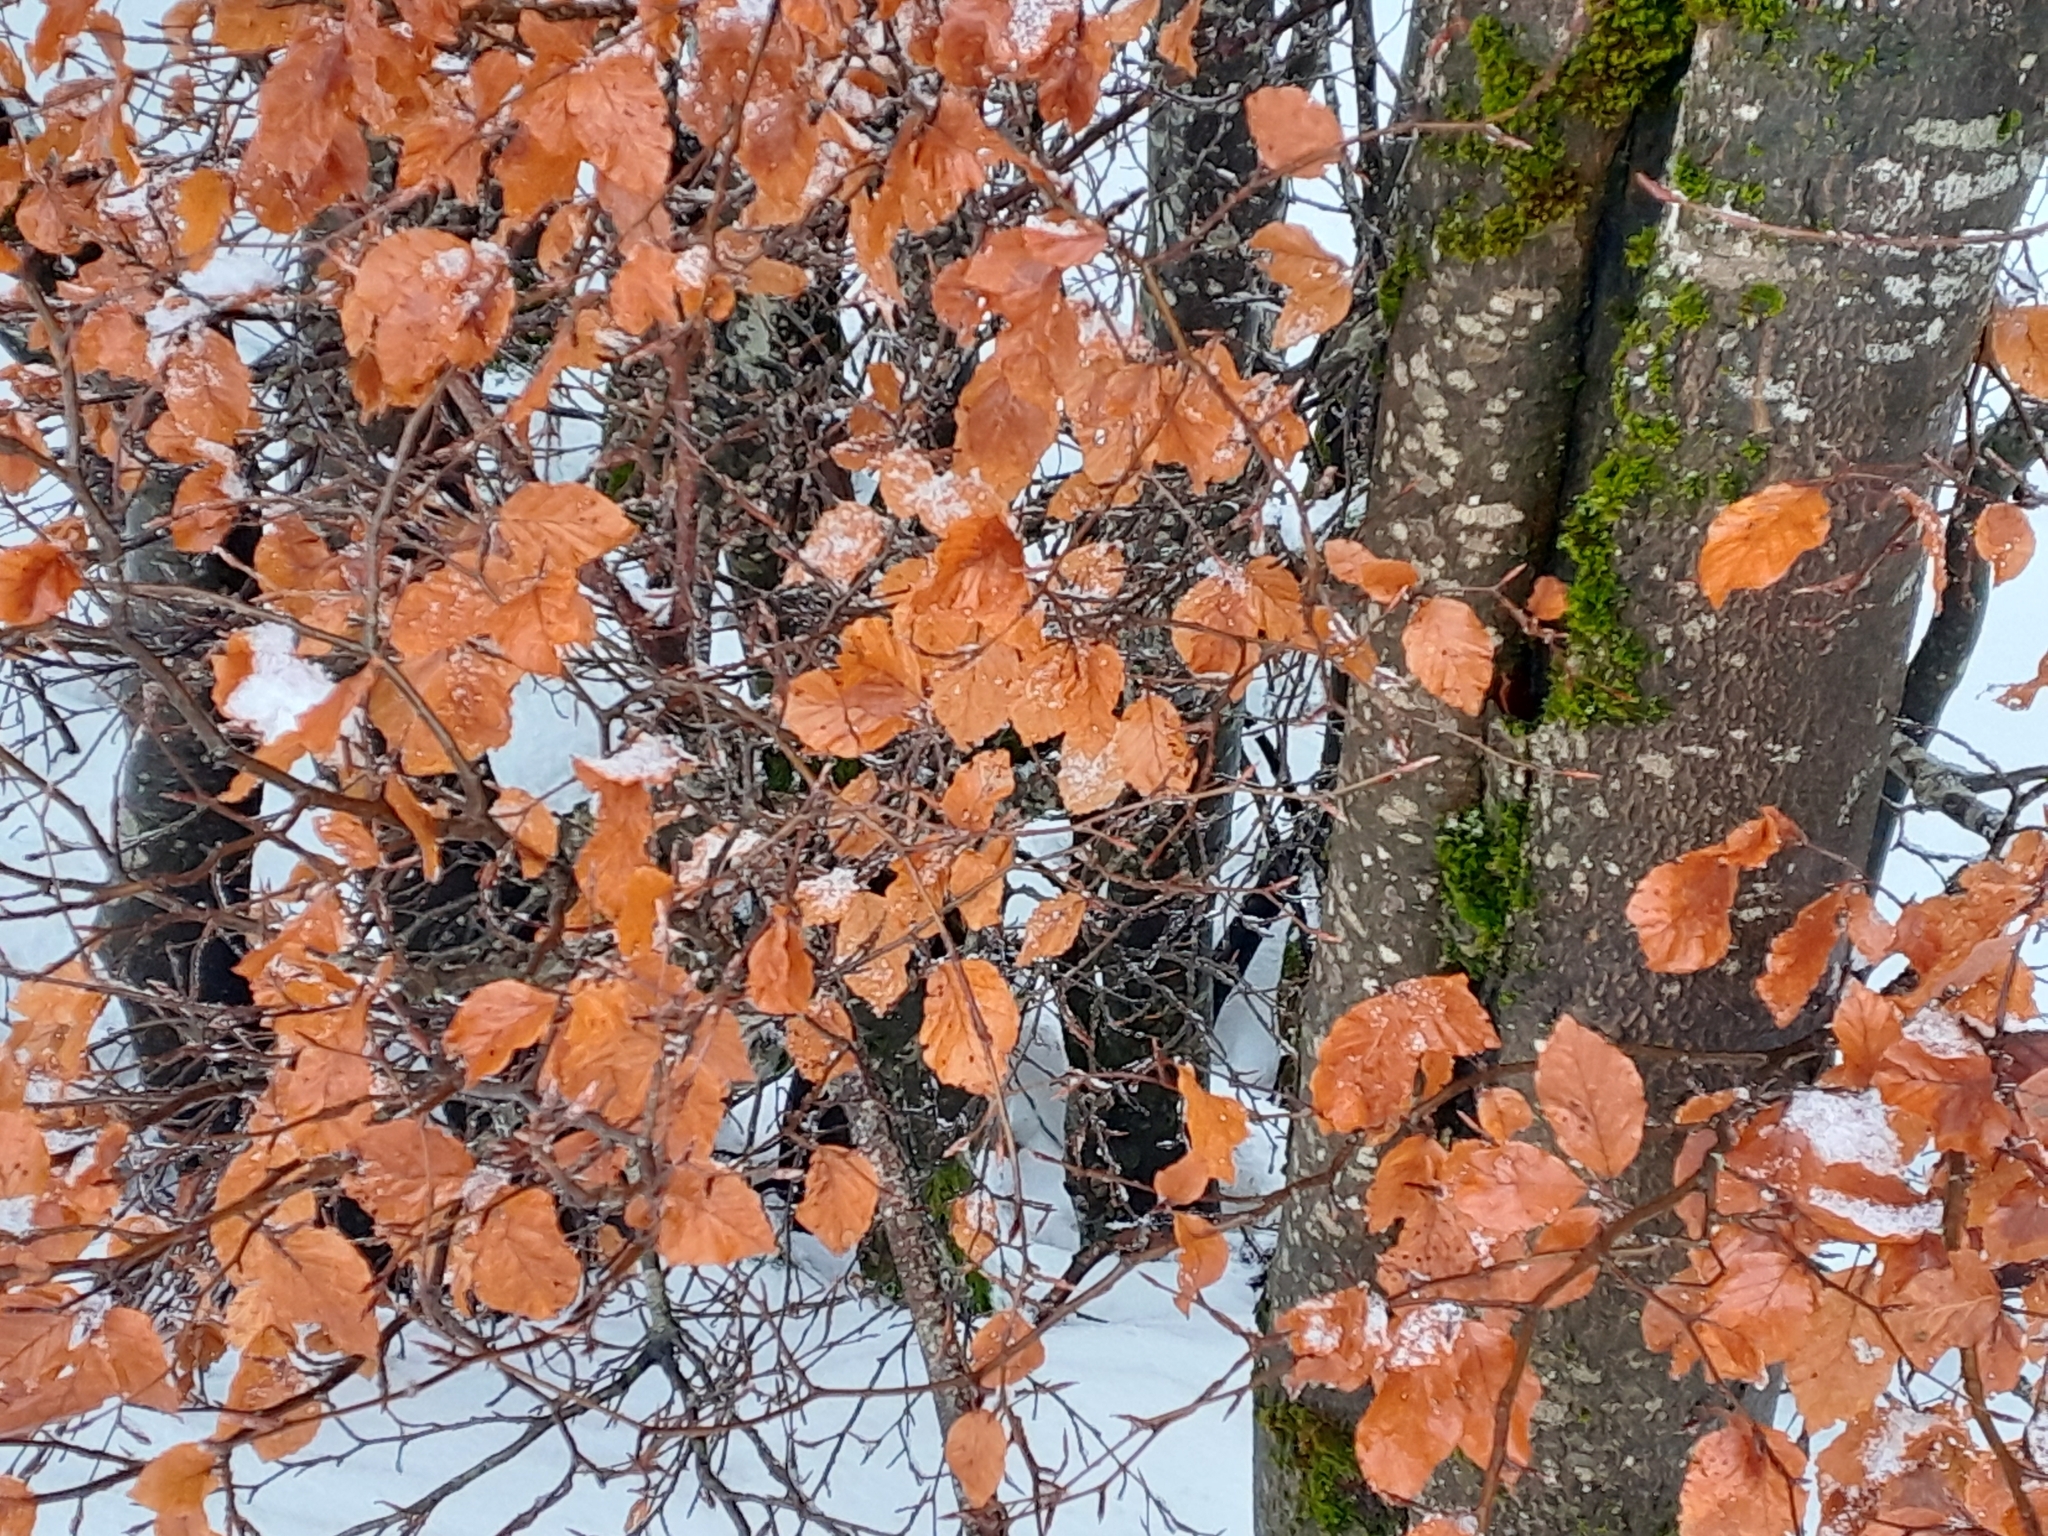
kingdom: Plantae
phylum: Tracheophyta
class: Magnoliopsida
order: Fagales
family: Fagaceae
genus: Fagus
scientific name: Fagus sylvatica
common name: Beech
